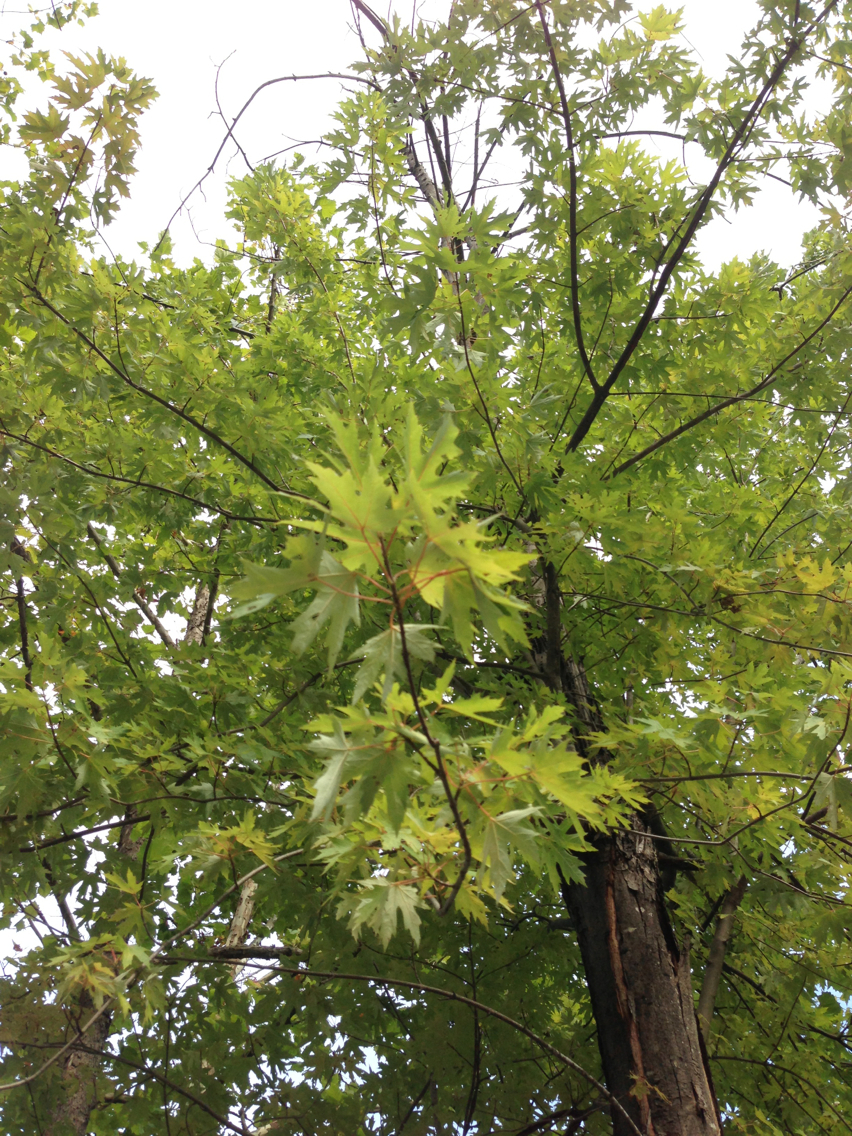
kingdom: Plantae
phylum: Tracheophyta
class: Magnoliopsida
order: Sapindales
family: Sapindaceae
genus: Acer
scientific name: Acer saccharinum
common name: Silver maple
